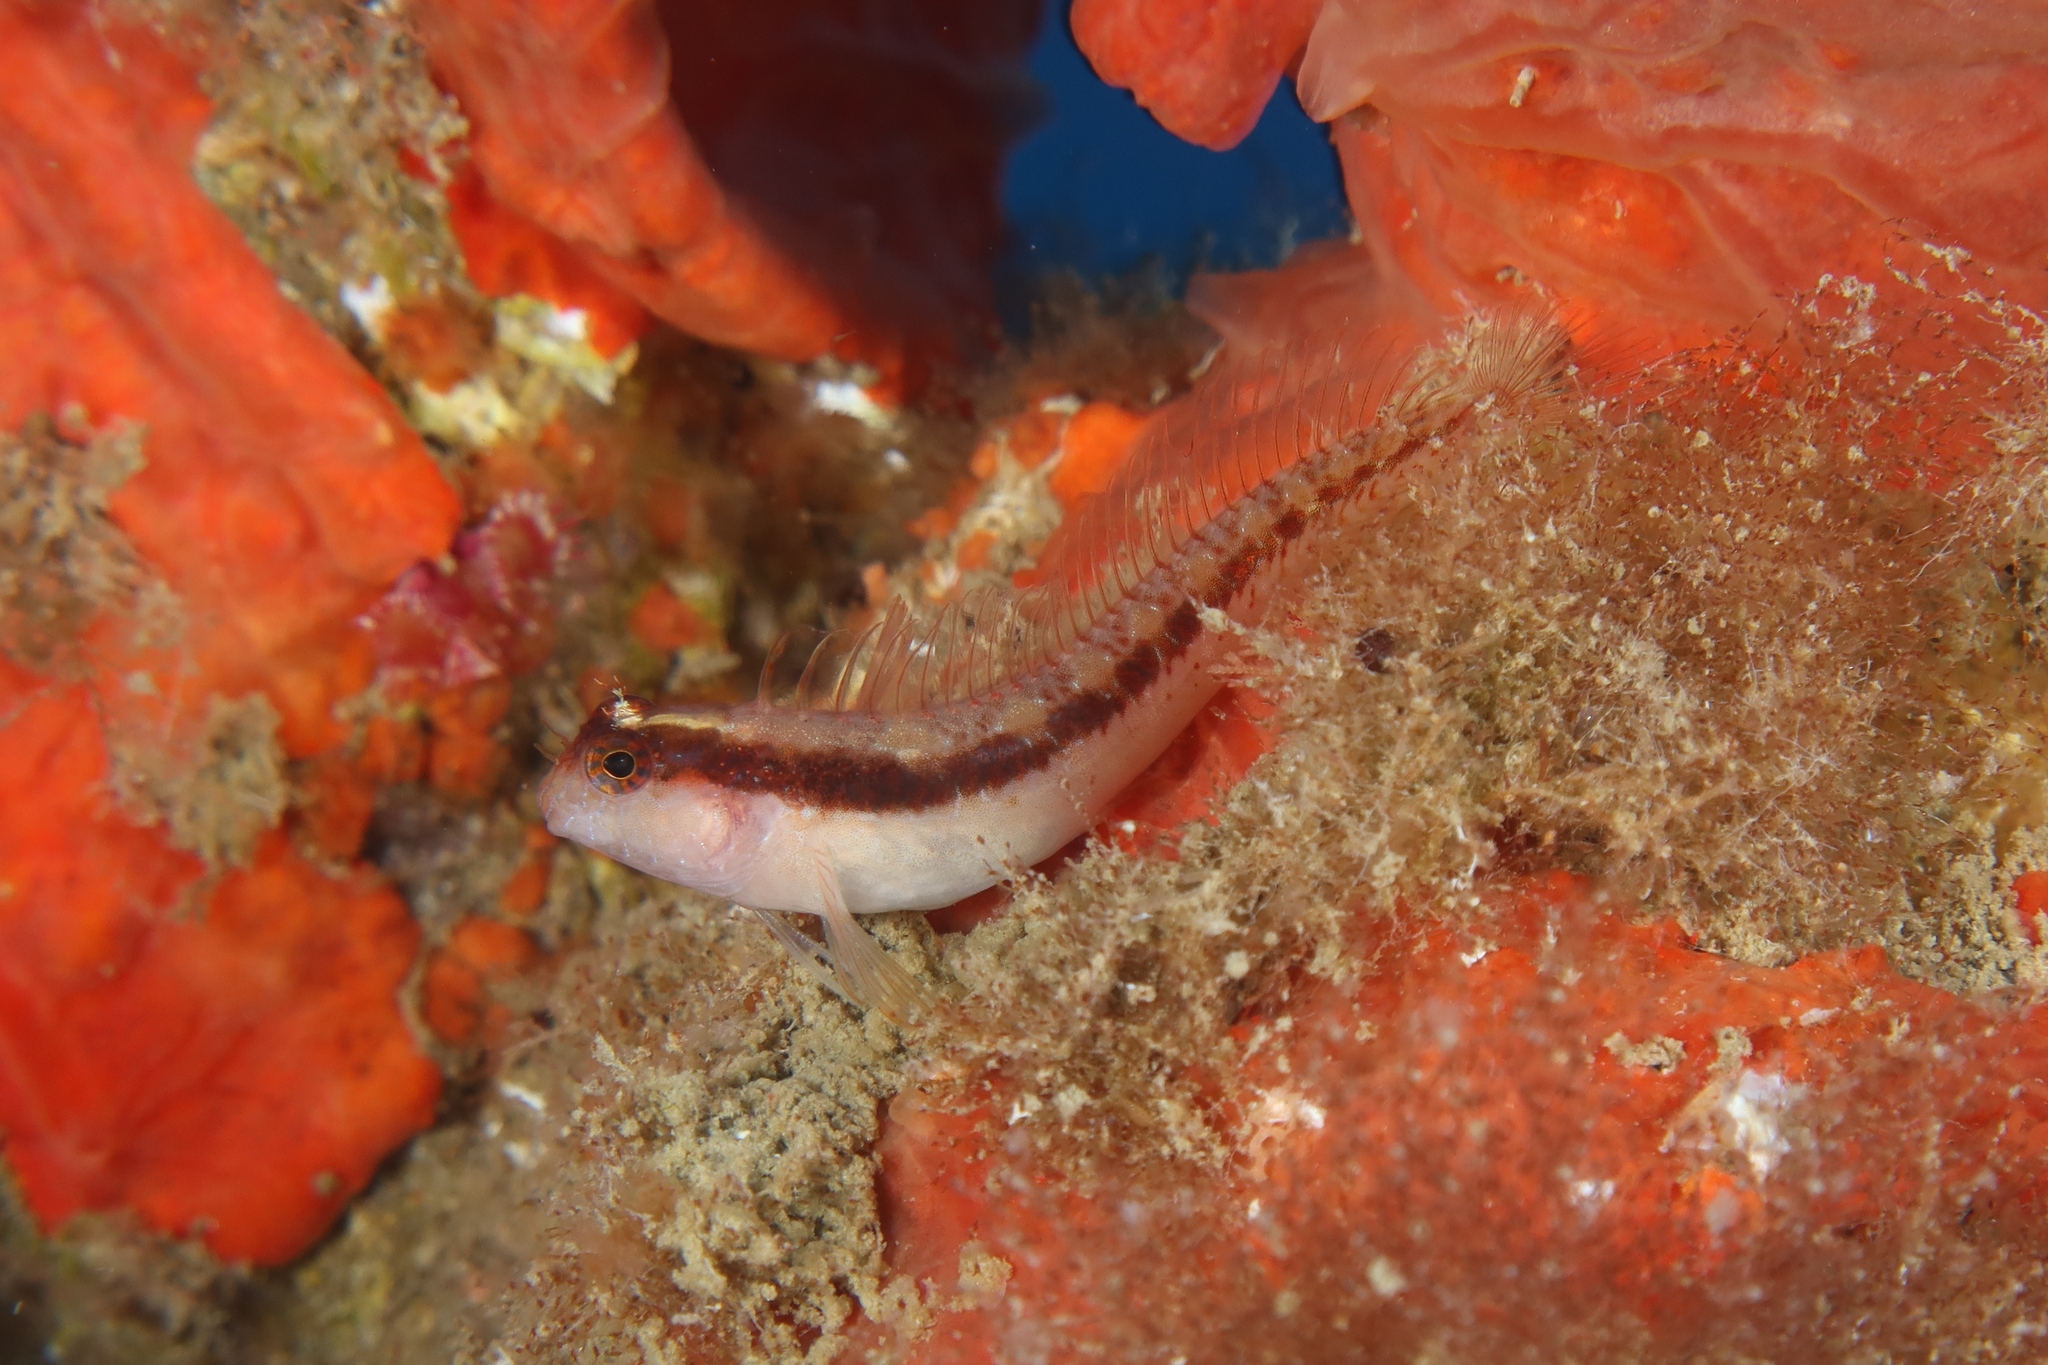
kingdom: Animalia
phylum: Chordata
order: Perciformes
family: Blenniidae
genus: Parablennius
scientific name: Parablennius rouxi
